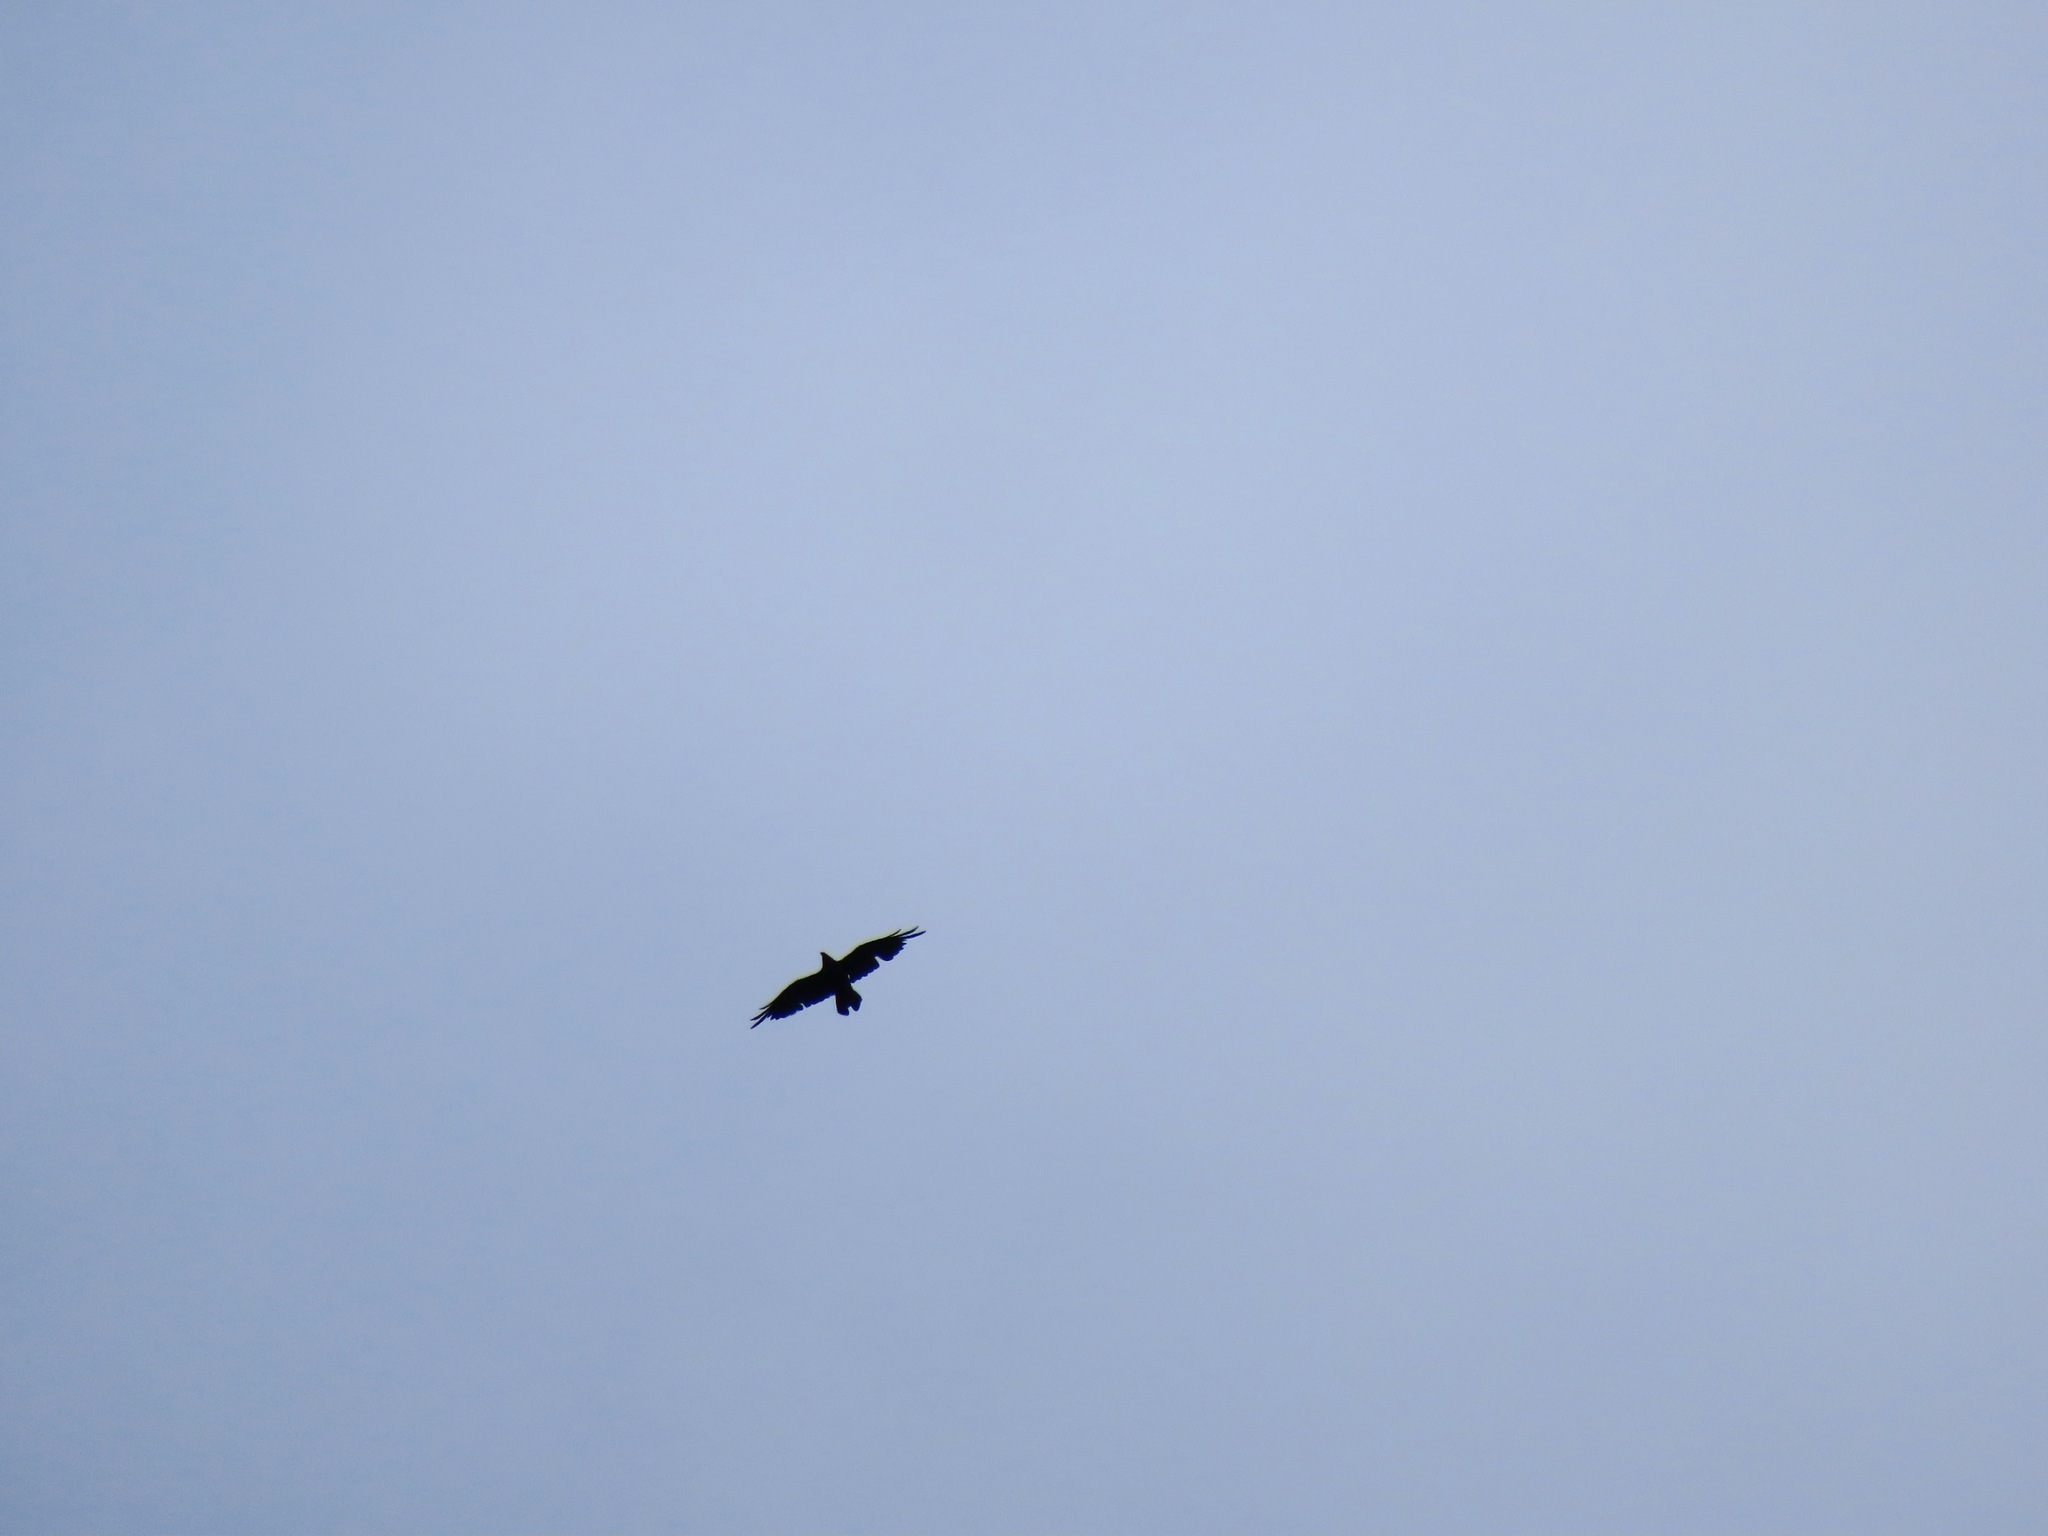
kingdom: Animalia
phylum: Chordata
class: Aves
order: Passeriformes
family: Corvidae
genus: Corvus
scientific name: Corvus corax
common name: Common raven
